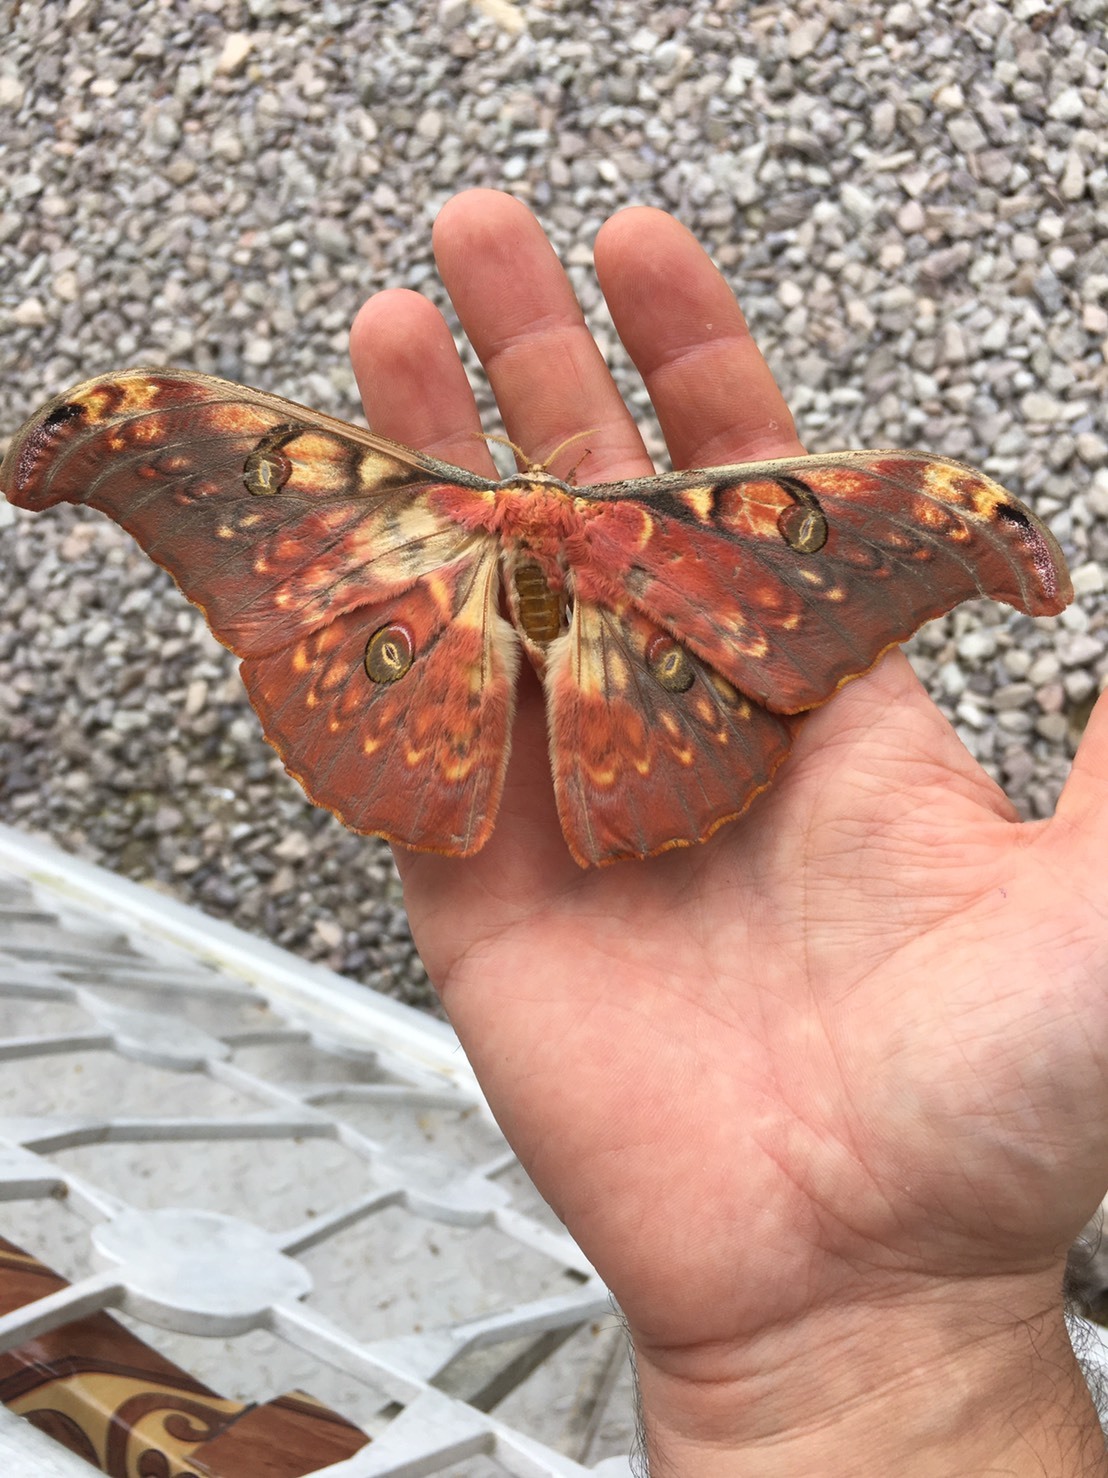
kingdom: Animalia
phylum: Arthropoda
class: Insecta
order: Lepidoptera
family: Saturniidae
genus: Antheraea
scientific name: Antheraea larissa
